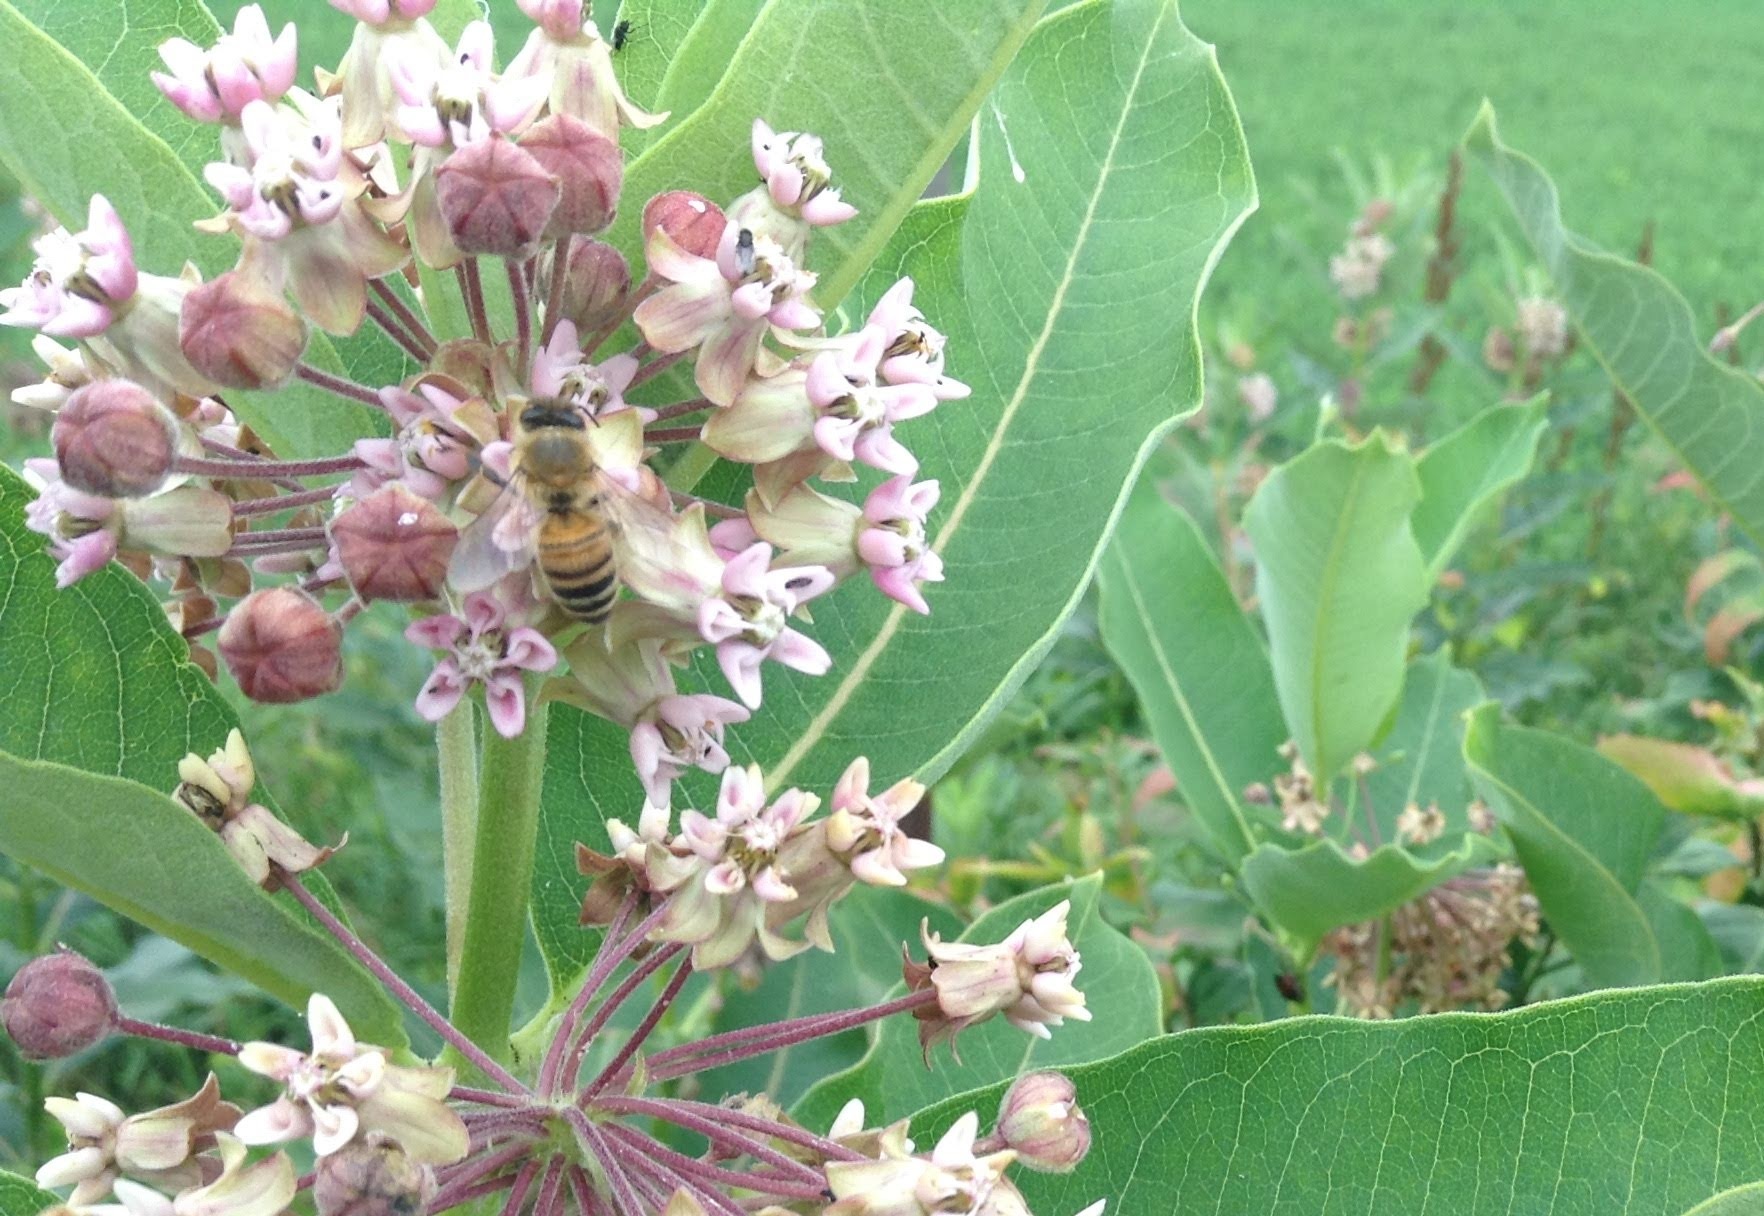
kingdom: Animalia
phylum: Arthropoda
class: Insecta
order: Hymenoptera
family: Apidae
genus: Apis
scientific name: Apis mellifera
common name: Honey bee
